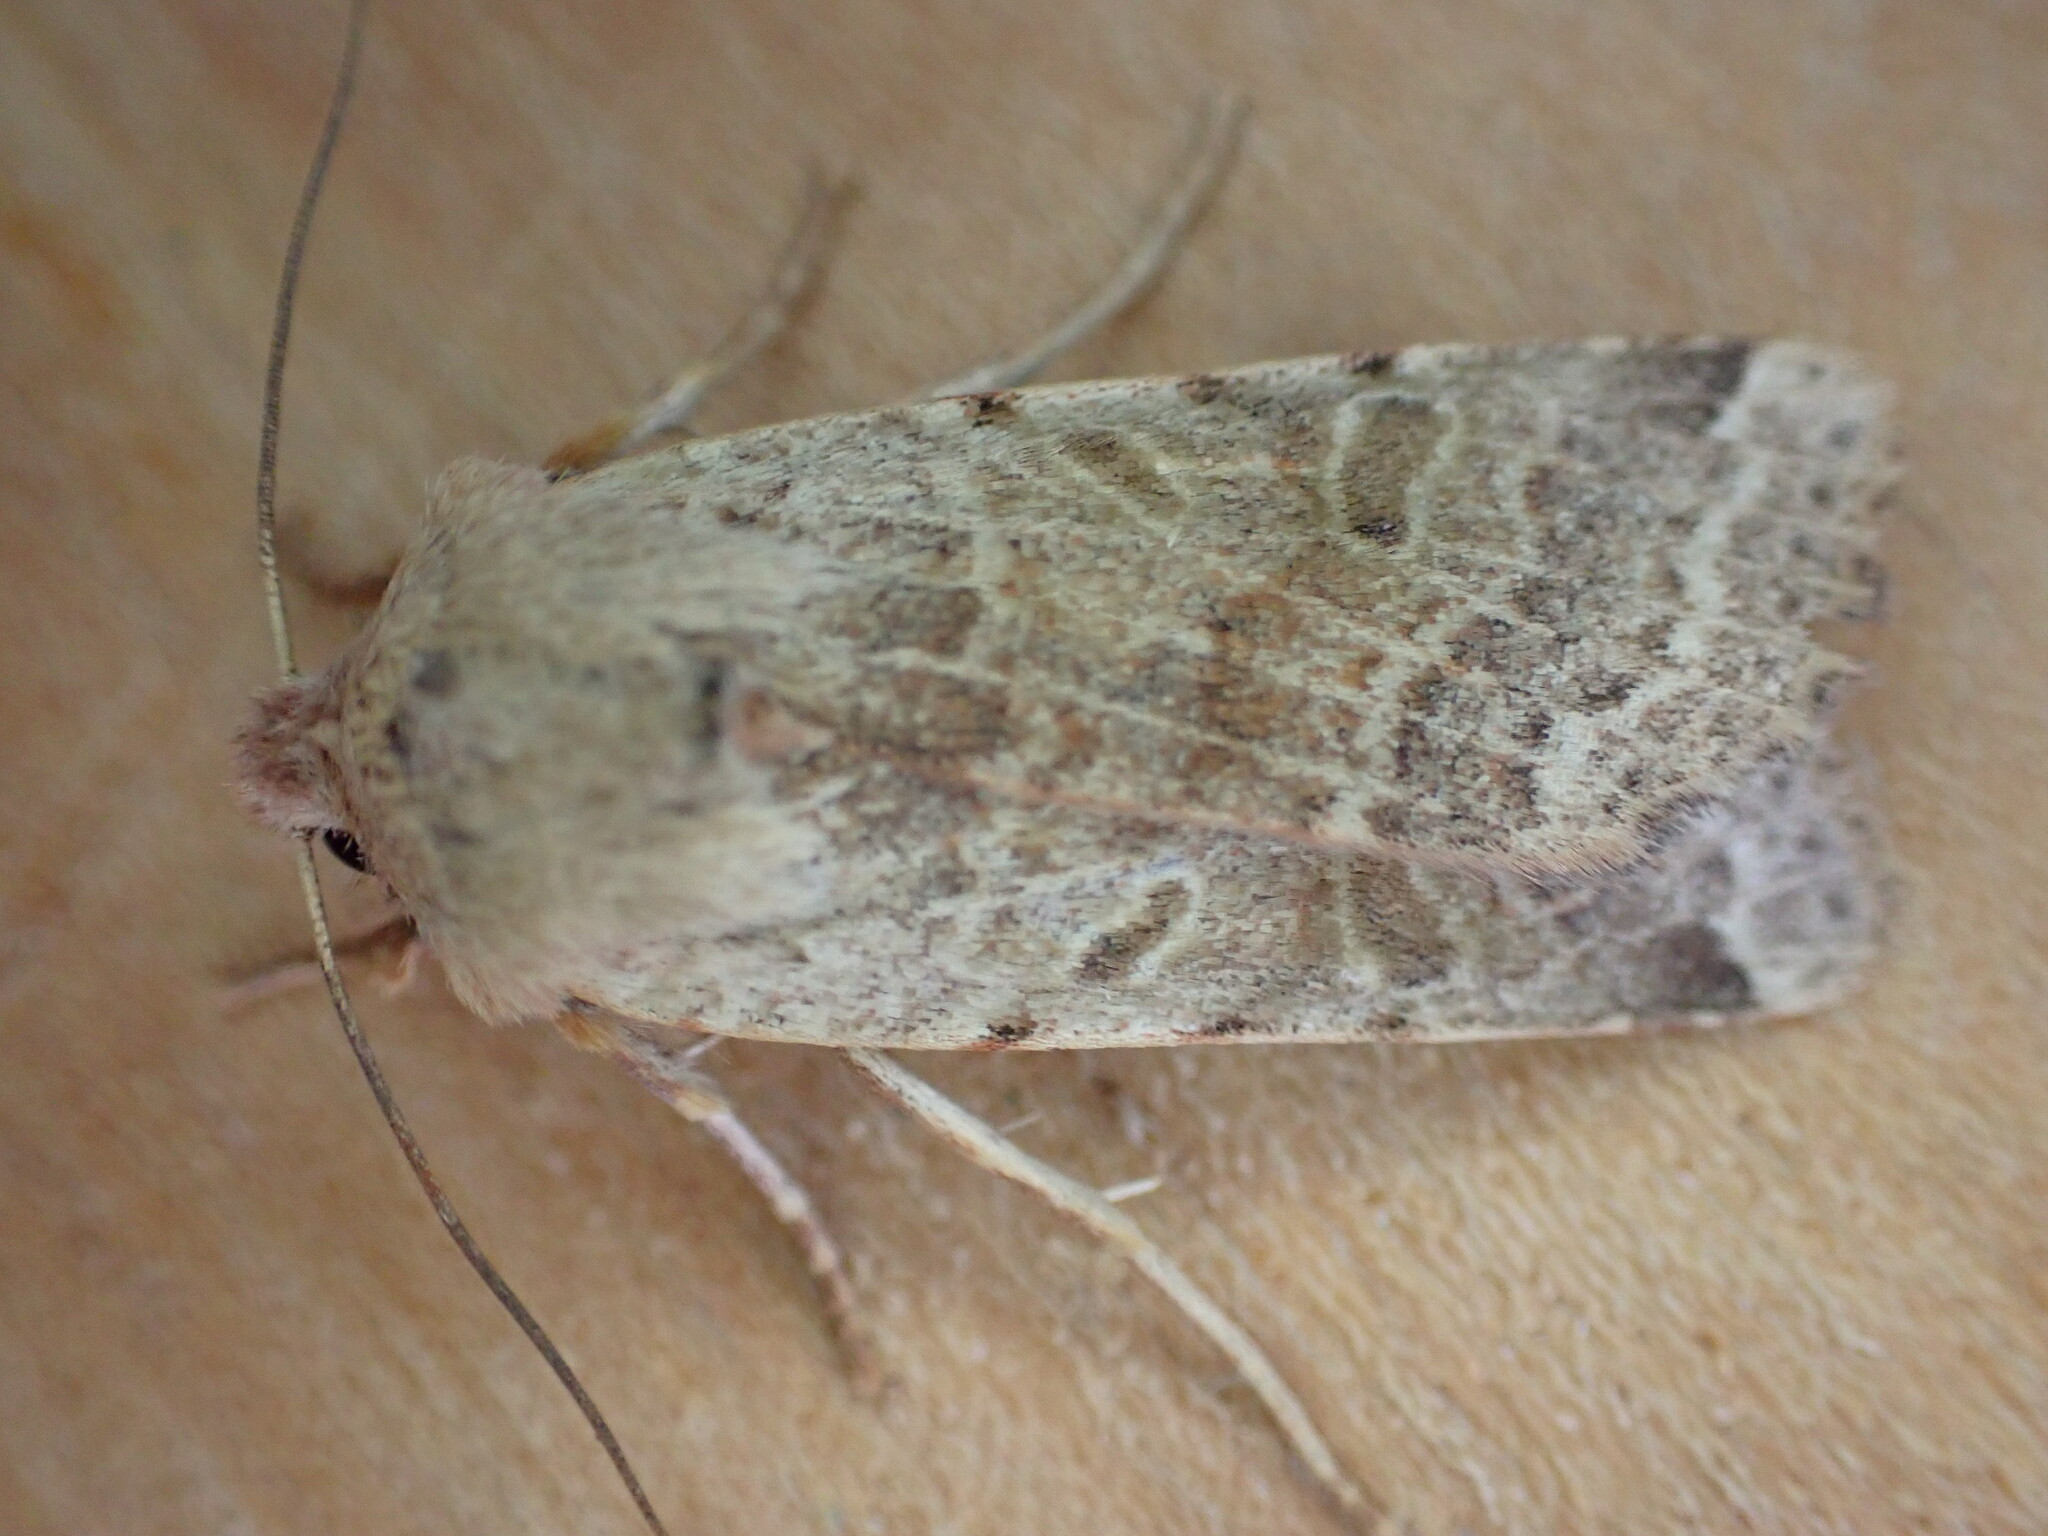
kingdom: Animalia
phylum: Arthropoda
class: Insecta
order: Lepidoptera
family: Noctuidae
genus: Agrochola
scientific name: Agrochola lychnidis
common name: Beaded chestnut
